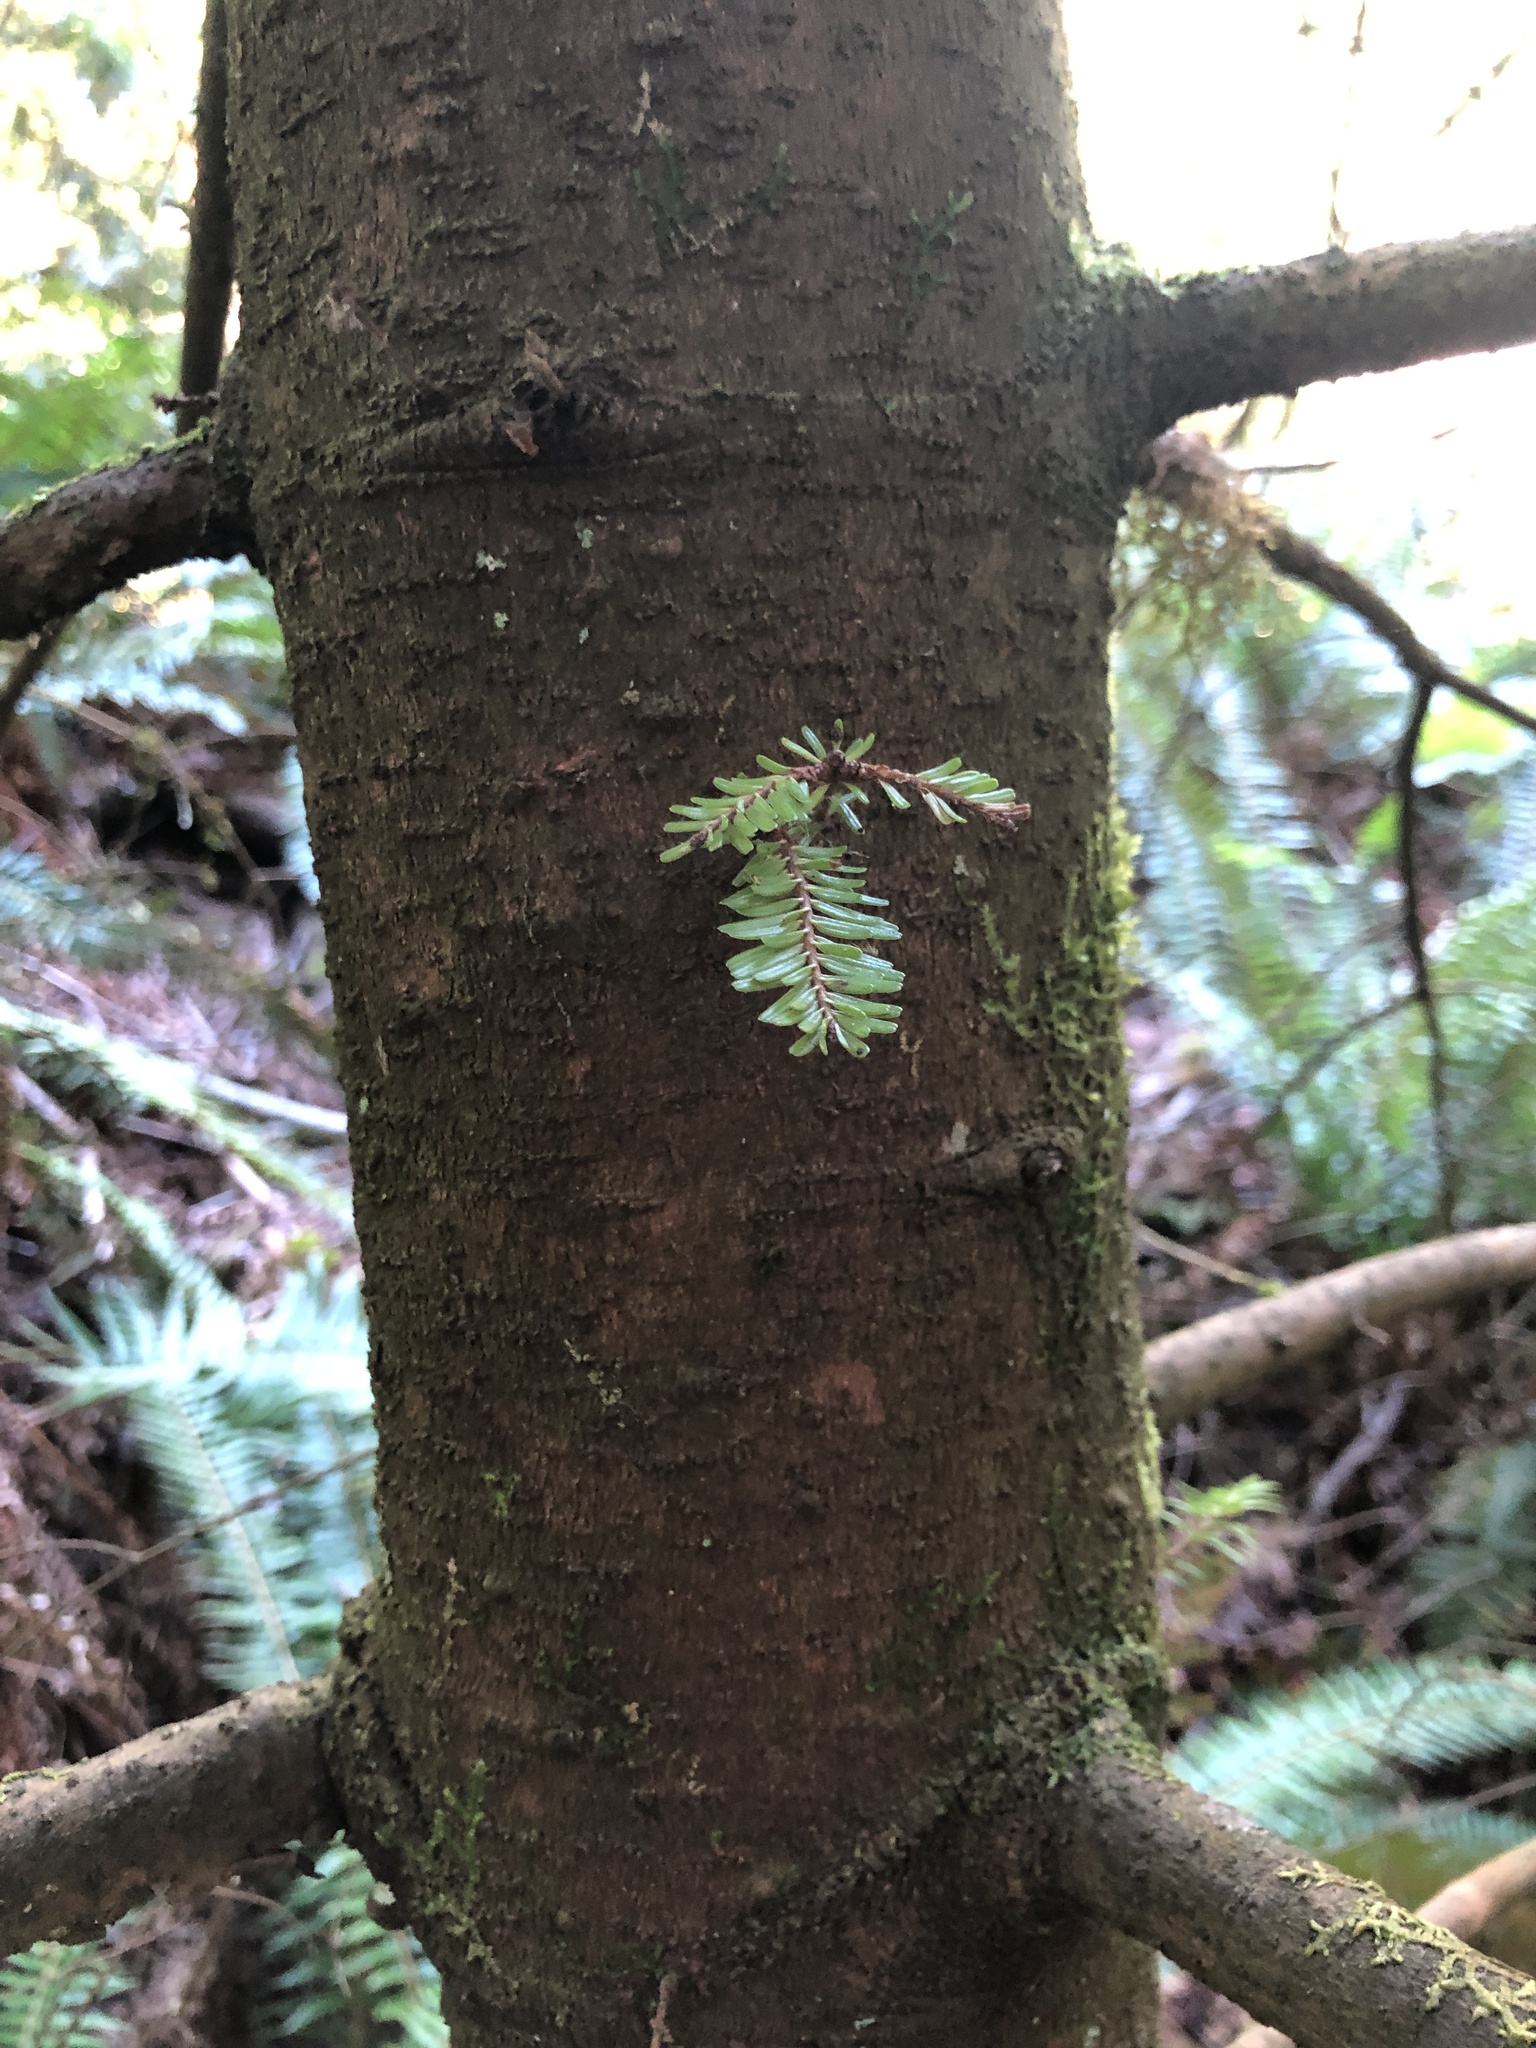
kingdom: Plantae
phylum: Tracheophyta
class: Pinopsida
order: Pinales
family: Pinaceae
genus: Abies
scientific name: Abies grandis
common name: Giant fir
